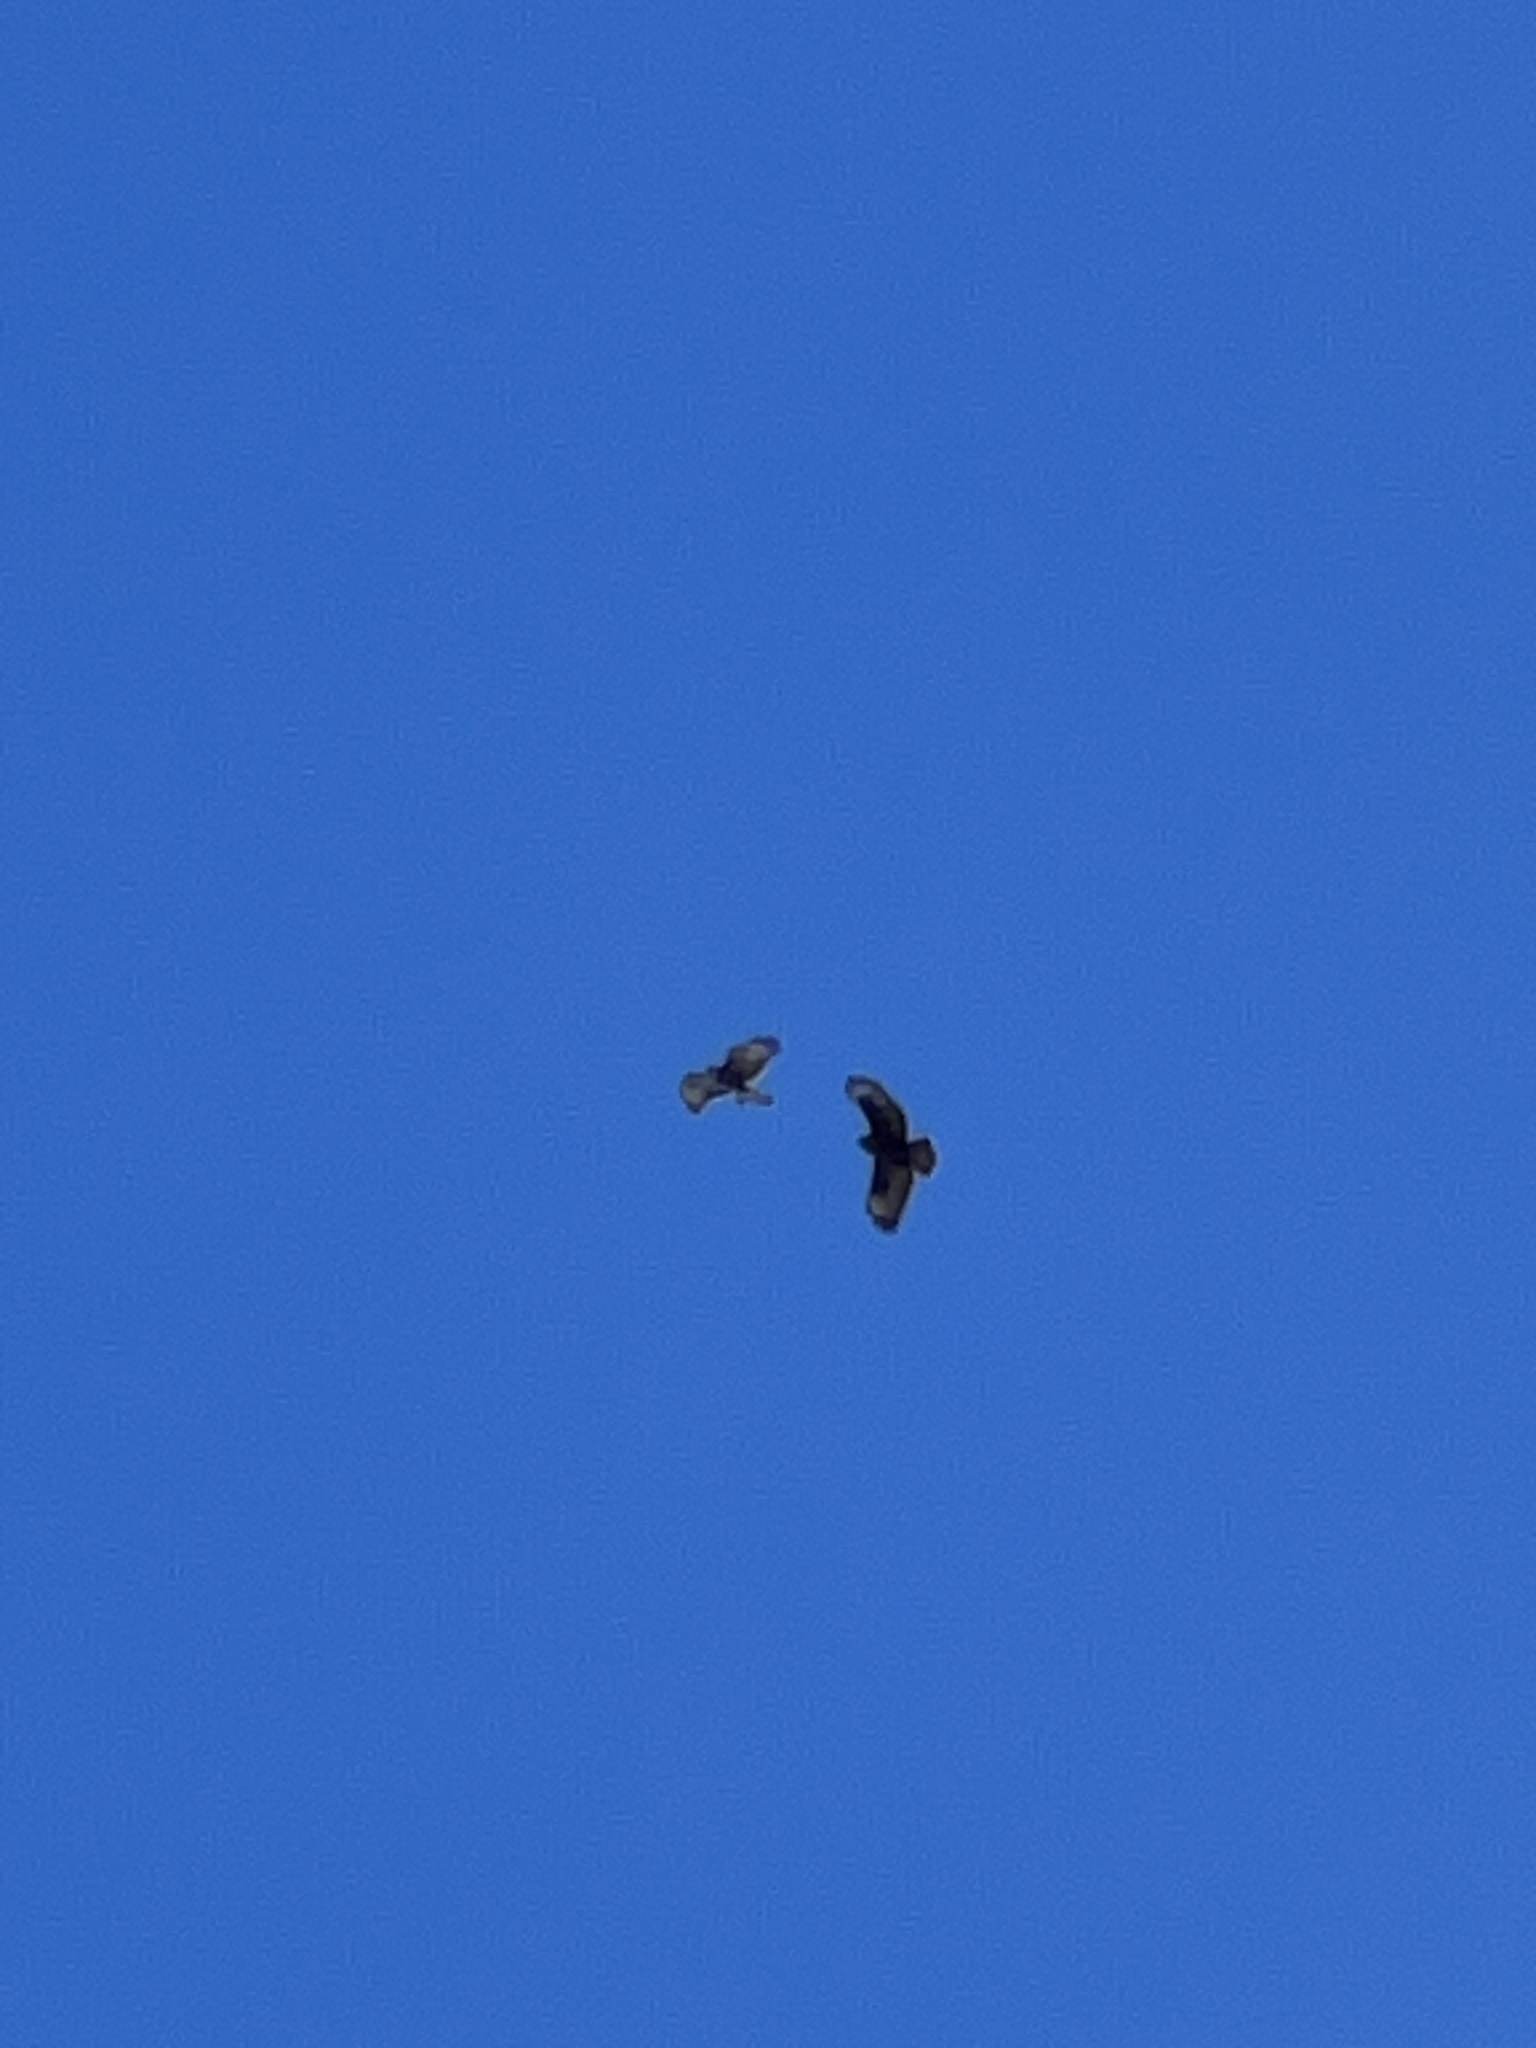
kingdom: Animalia
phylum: Chordata
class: Aves
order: Accipitriformes
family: Accipitridae
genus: Buteo
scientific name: Buteo buteo
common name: Common buzzard
